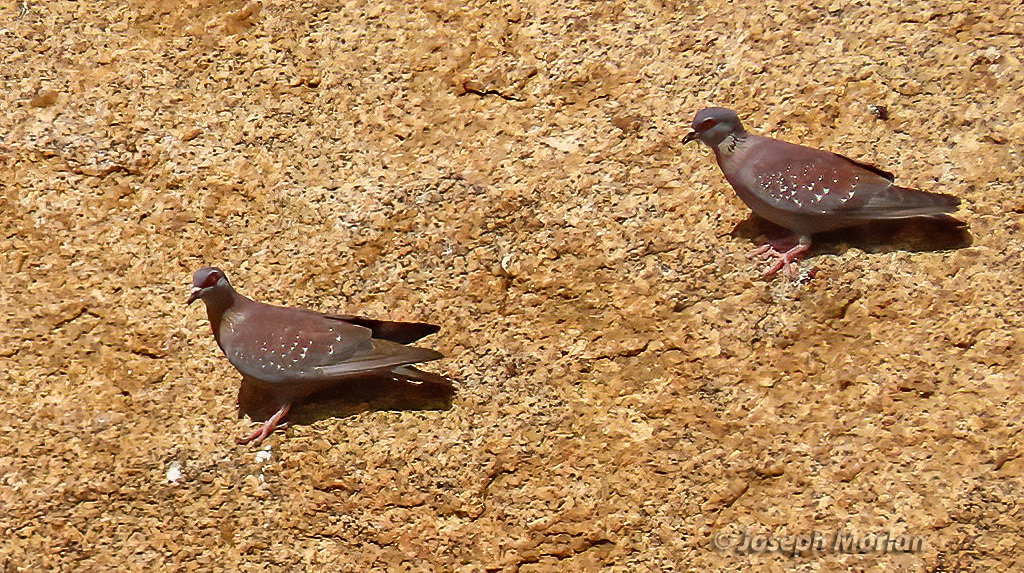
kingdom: Animalia
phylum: Chordata
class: Aves
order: Columbiformes
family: Columbidae
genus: Columba
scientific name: Columba guinea
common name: Speckled pigeon
